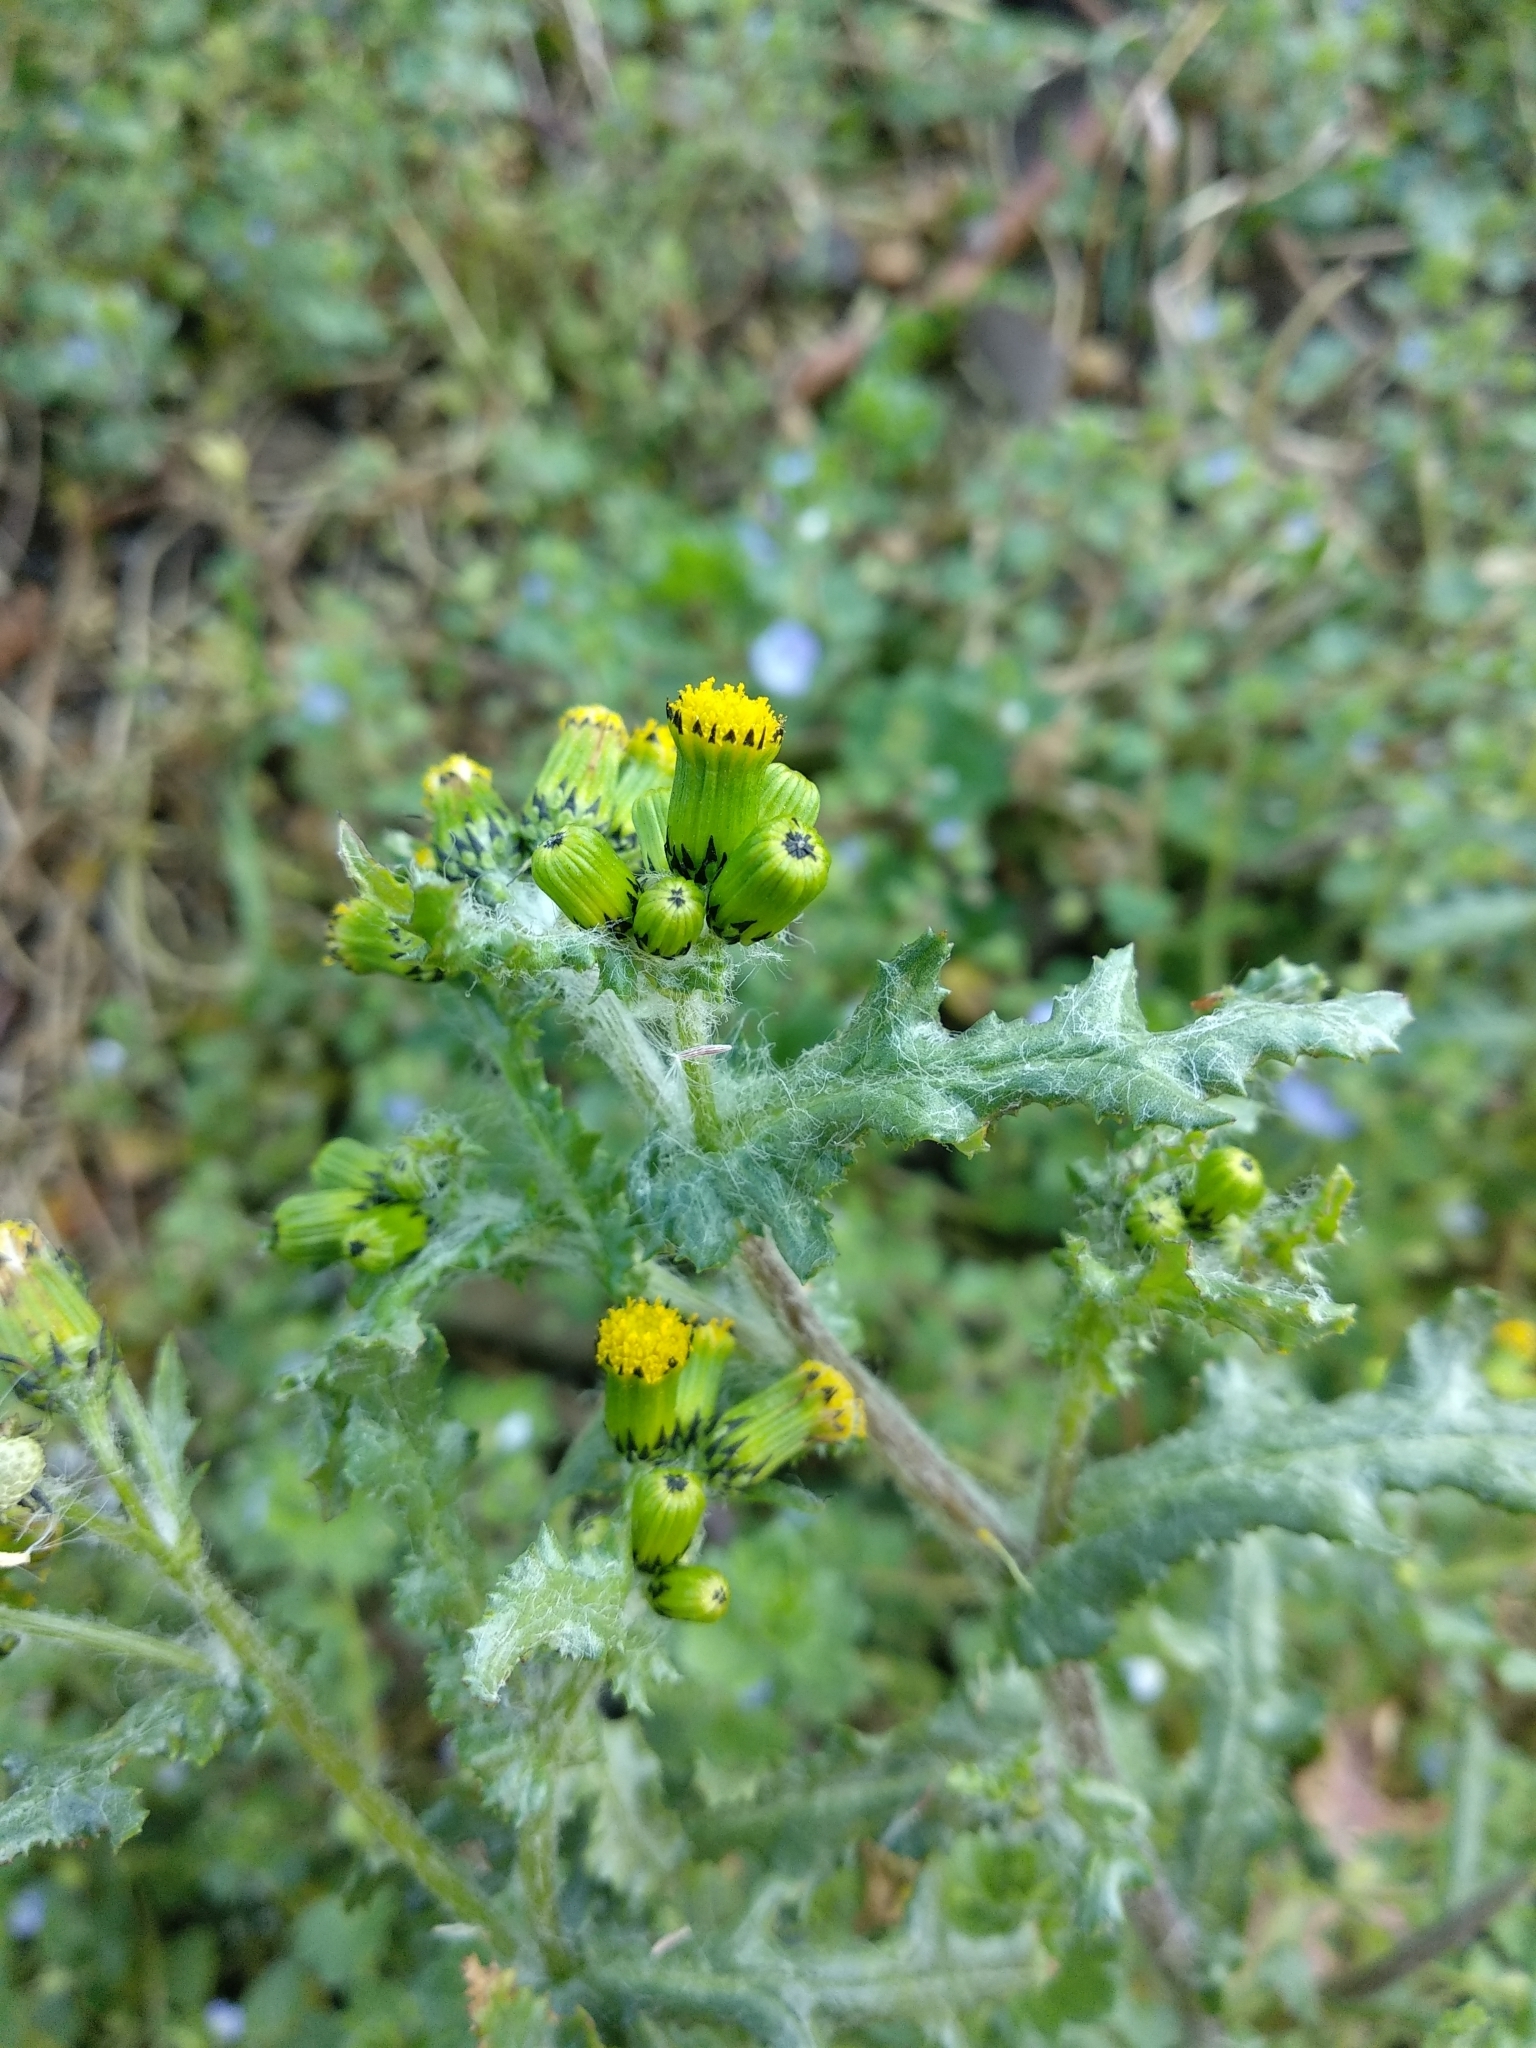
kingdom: Plantae
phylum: Tracheophyta
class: Magnoliopsida
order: Asterales
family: Asteraceae
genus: Senecio
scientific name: Senecio vulgaris
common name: Old-man-in-the-spring
